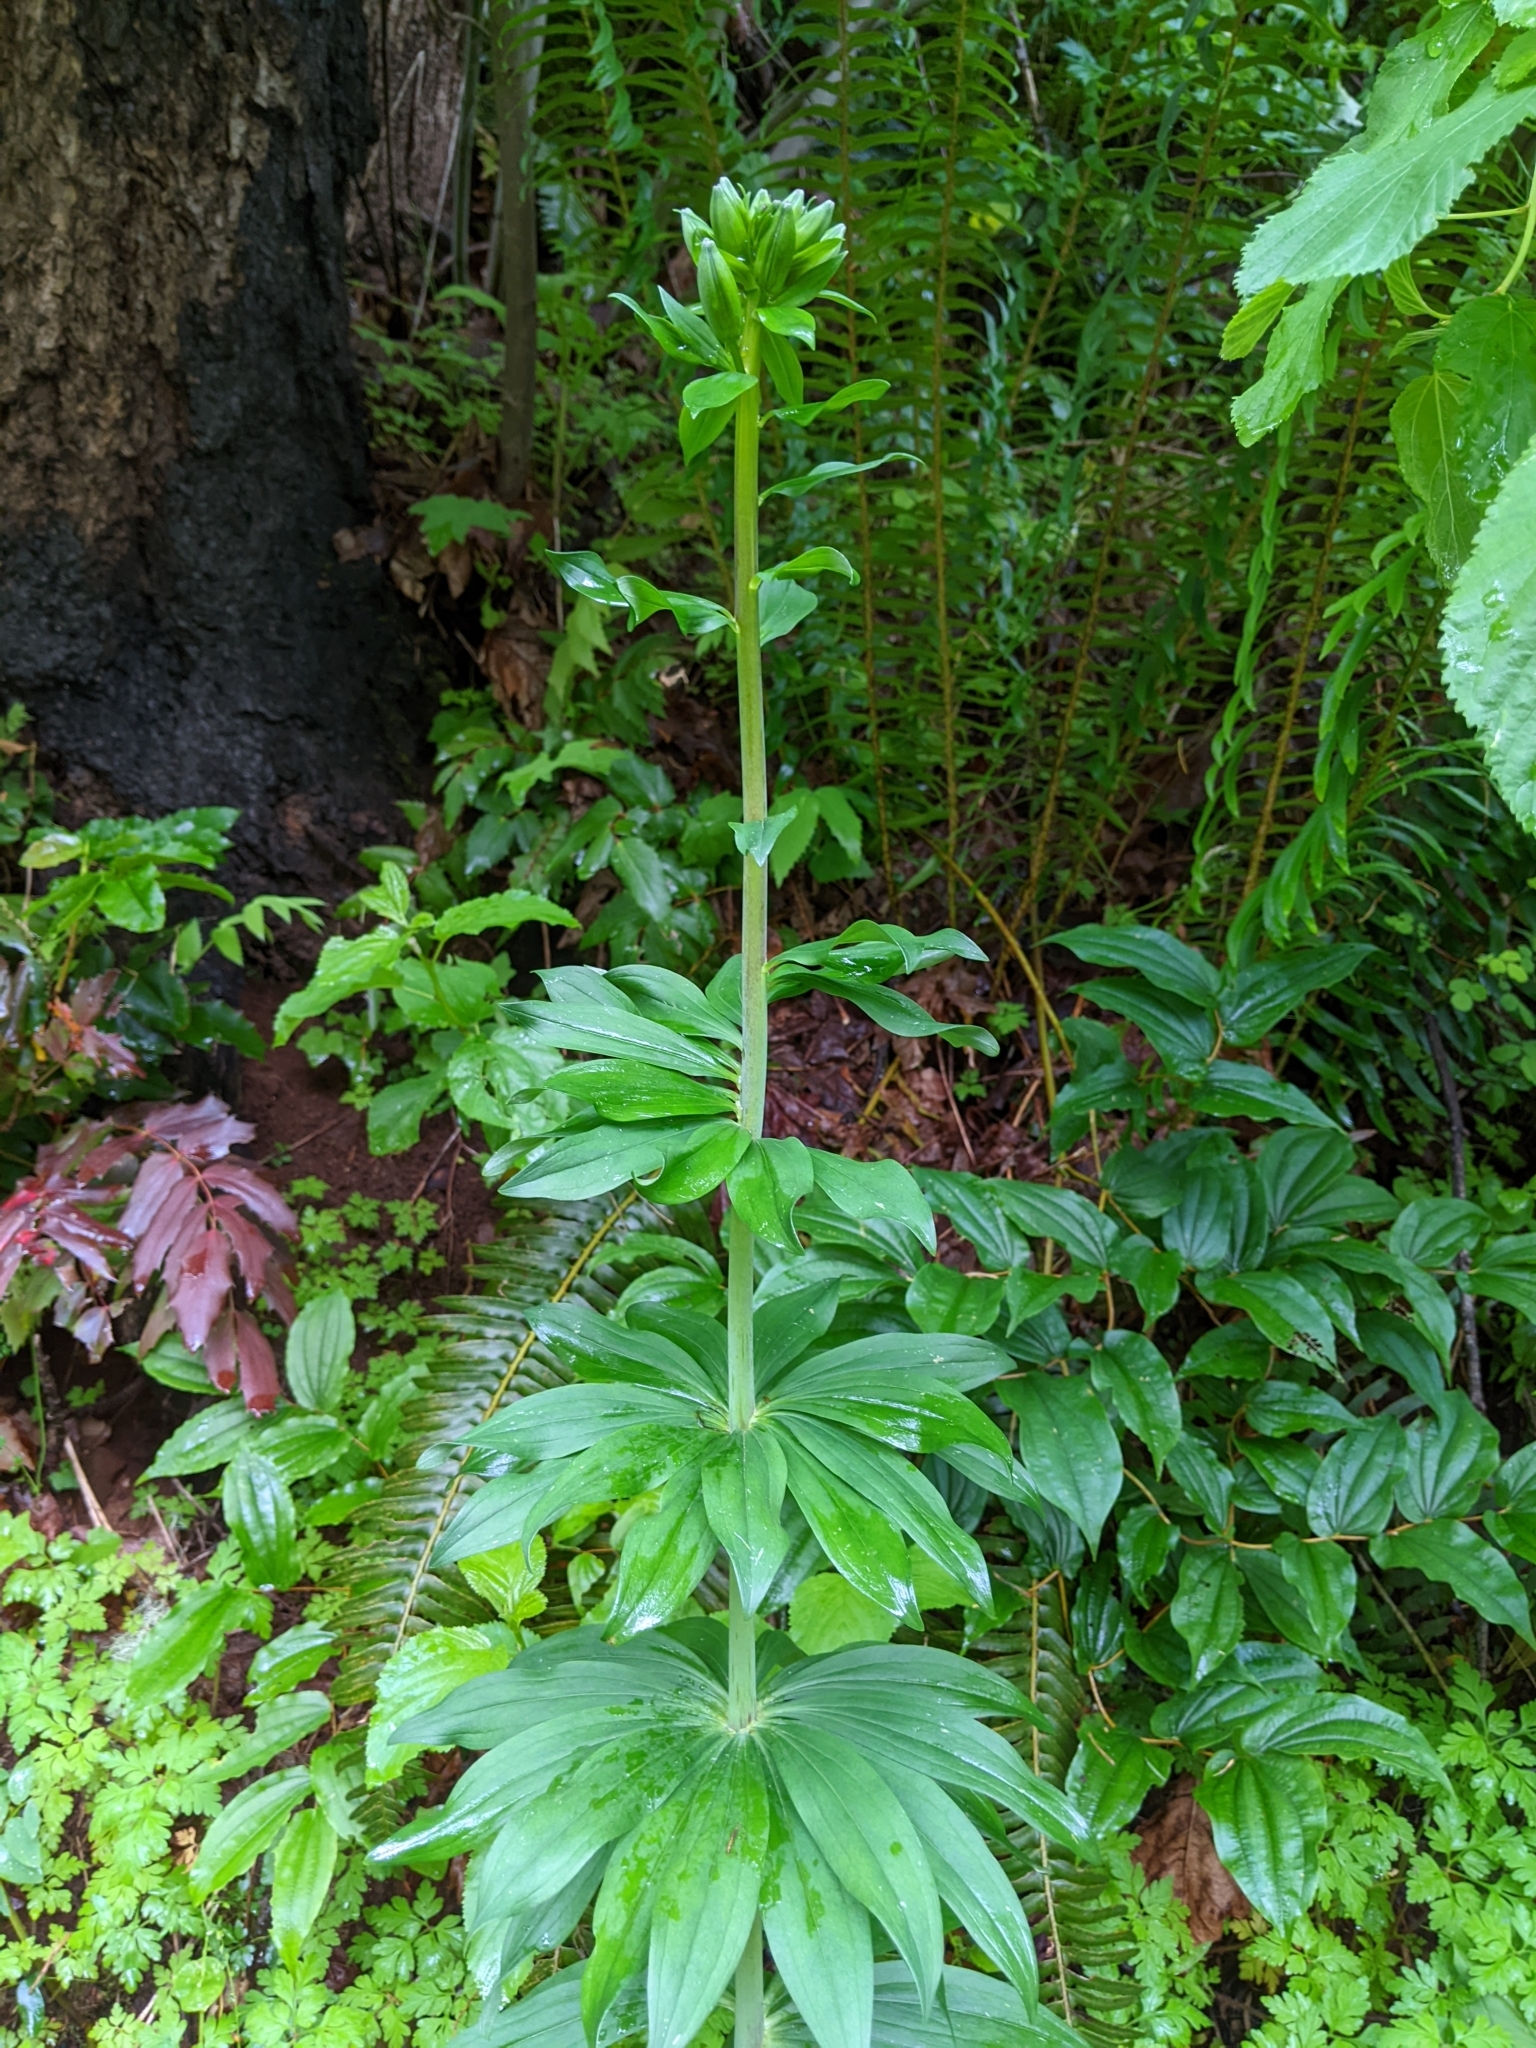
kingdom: Plantae
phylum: Tracheophyta
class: Liliopsida
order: Liliales
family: Liliaceae
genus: Lilium
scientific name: Lilium columbianum
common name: Columbia lily
